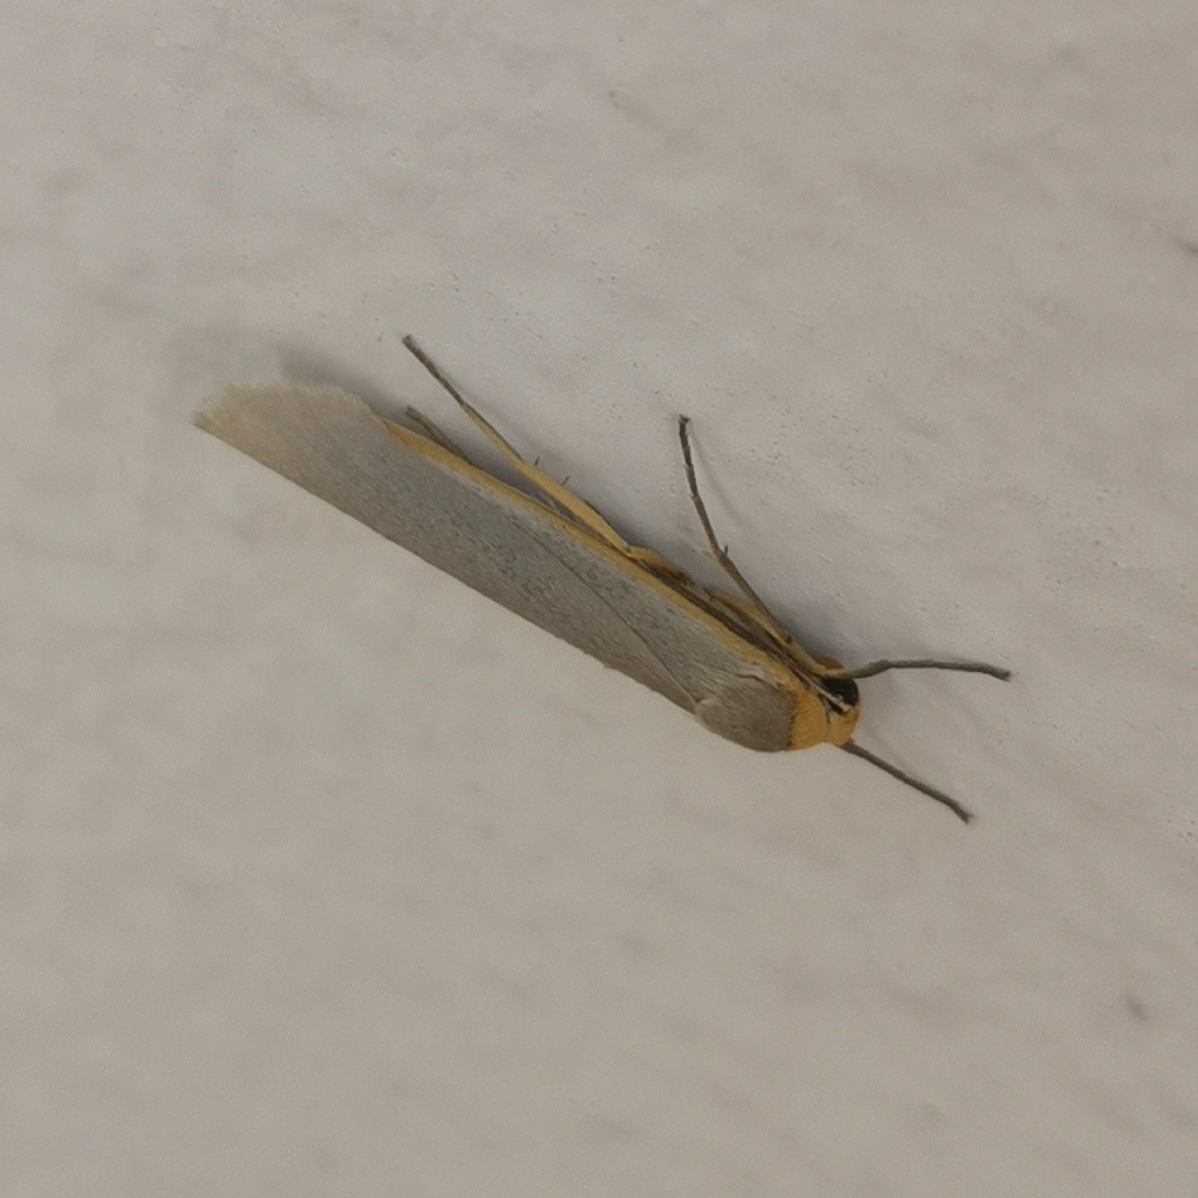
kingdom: Animalia
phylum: Arthropoda
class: Insecta
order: Lepidoptera
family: Erebidae
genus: Eilema
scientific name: Eilema caniola
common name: Hoary footman
